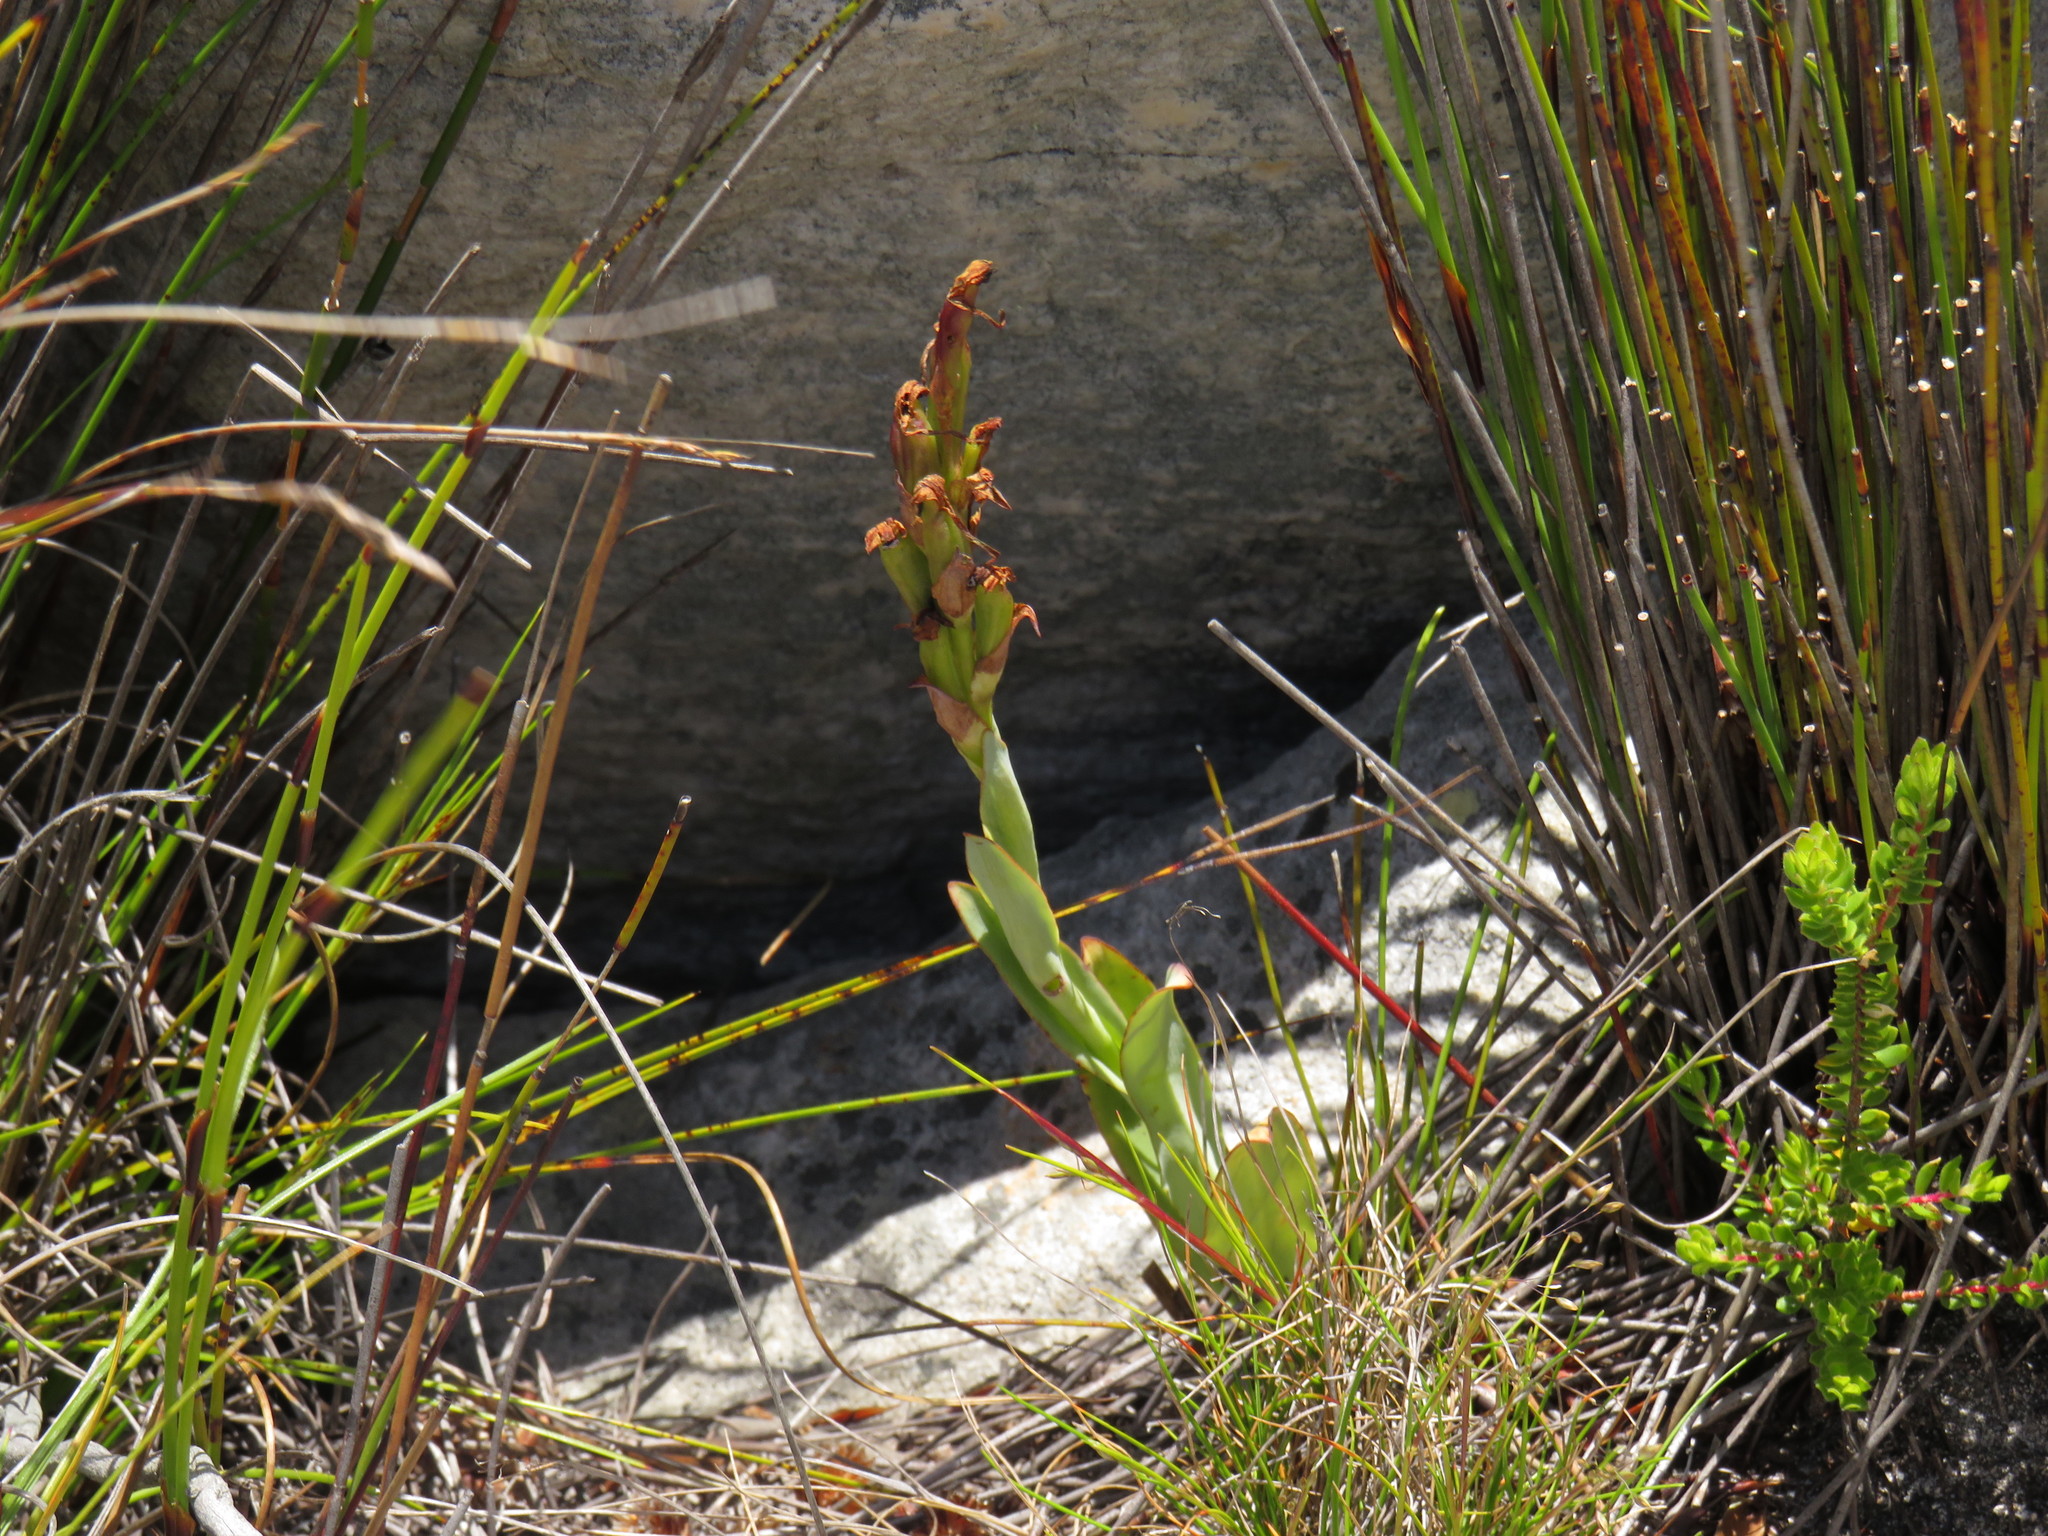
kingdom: Plantae
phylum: Tracheophyta
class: Liliopsida
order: Asparagales
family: Orchidaceae
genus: Disa
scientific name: Disa bolusiana
